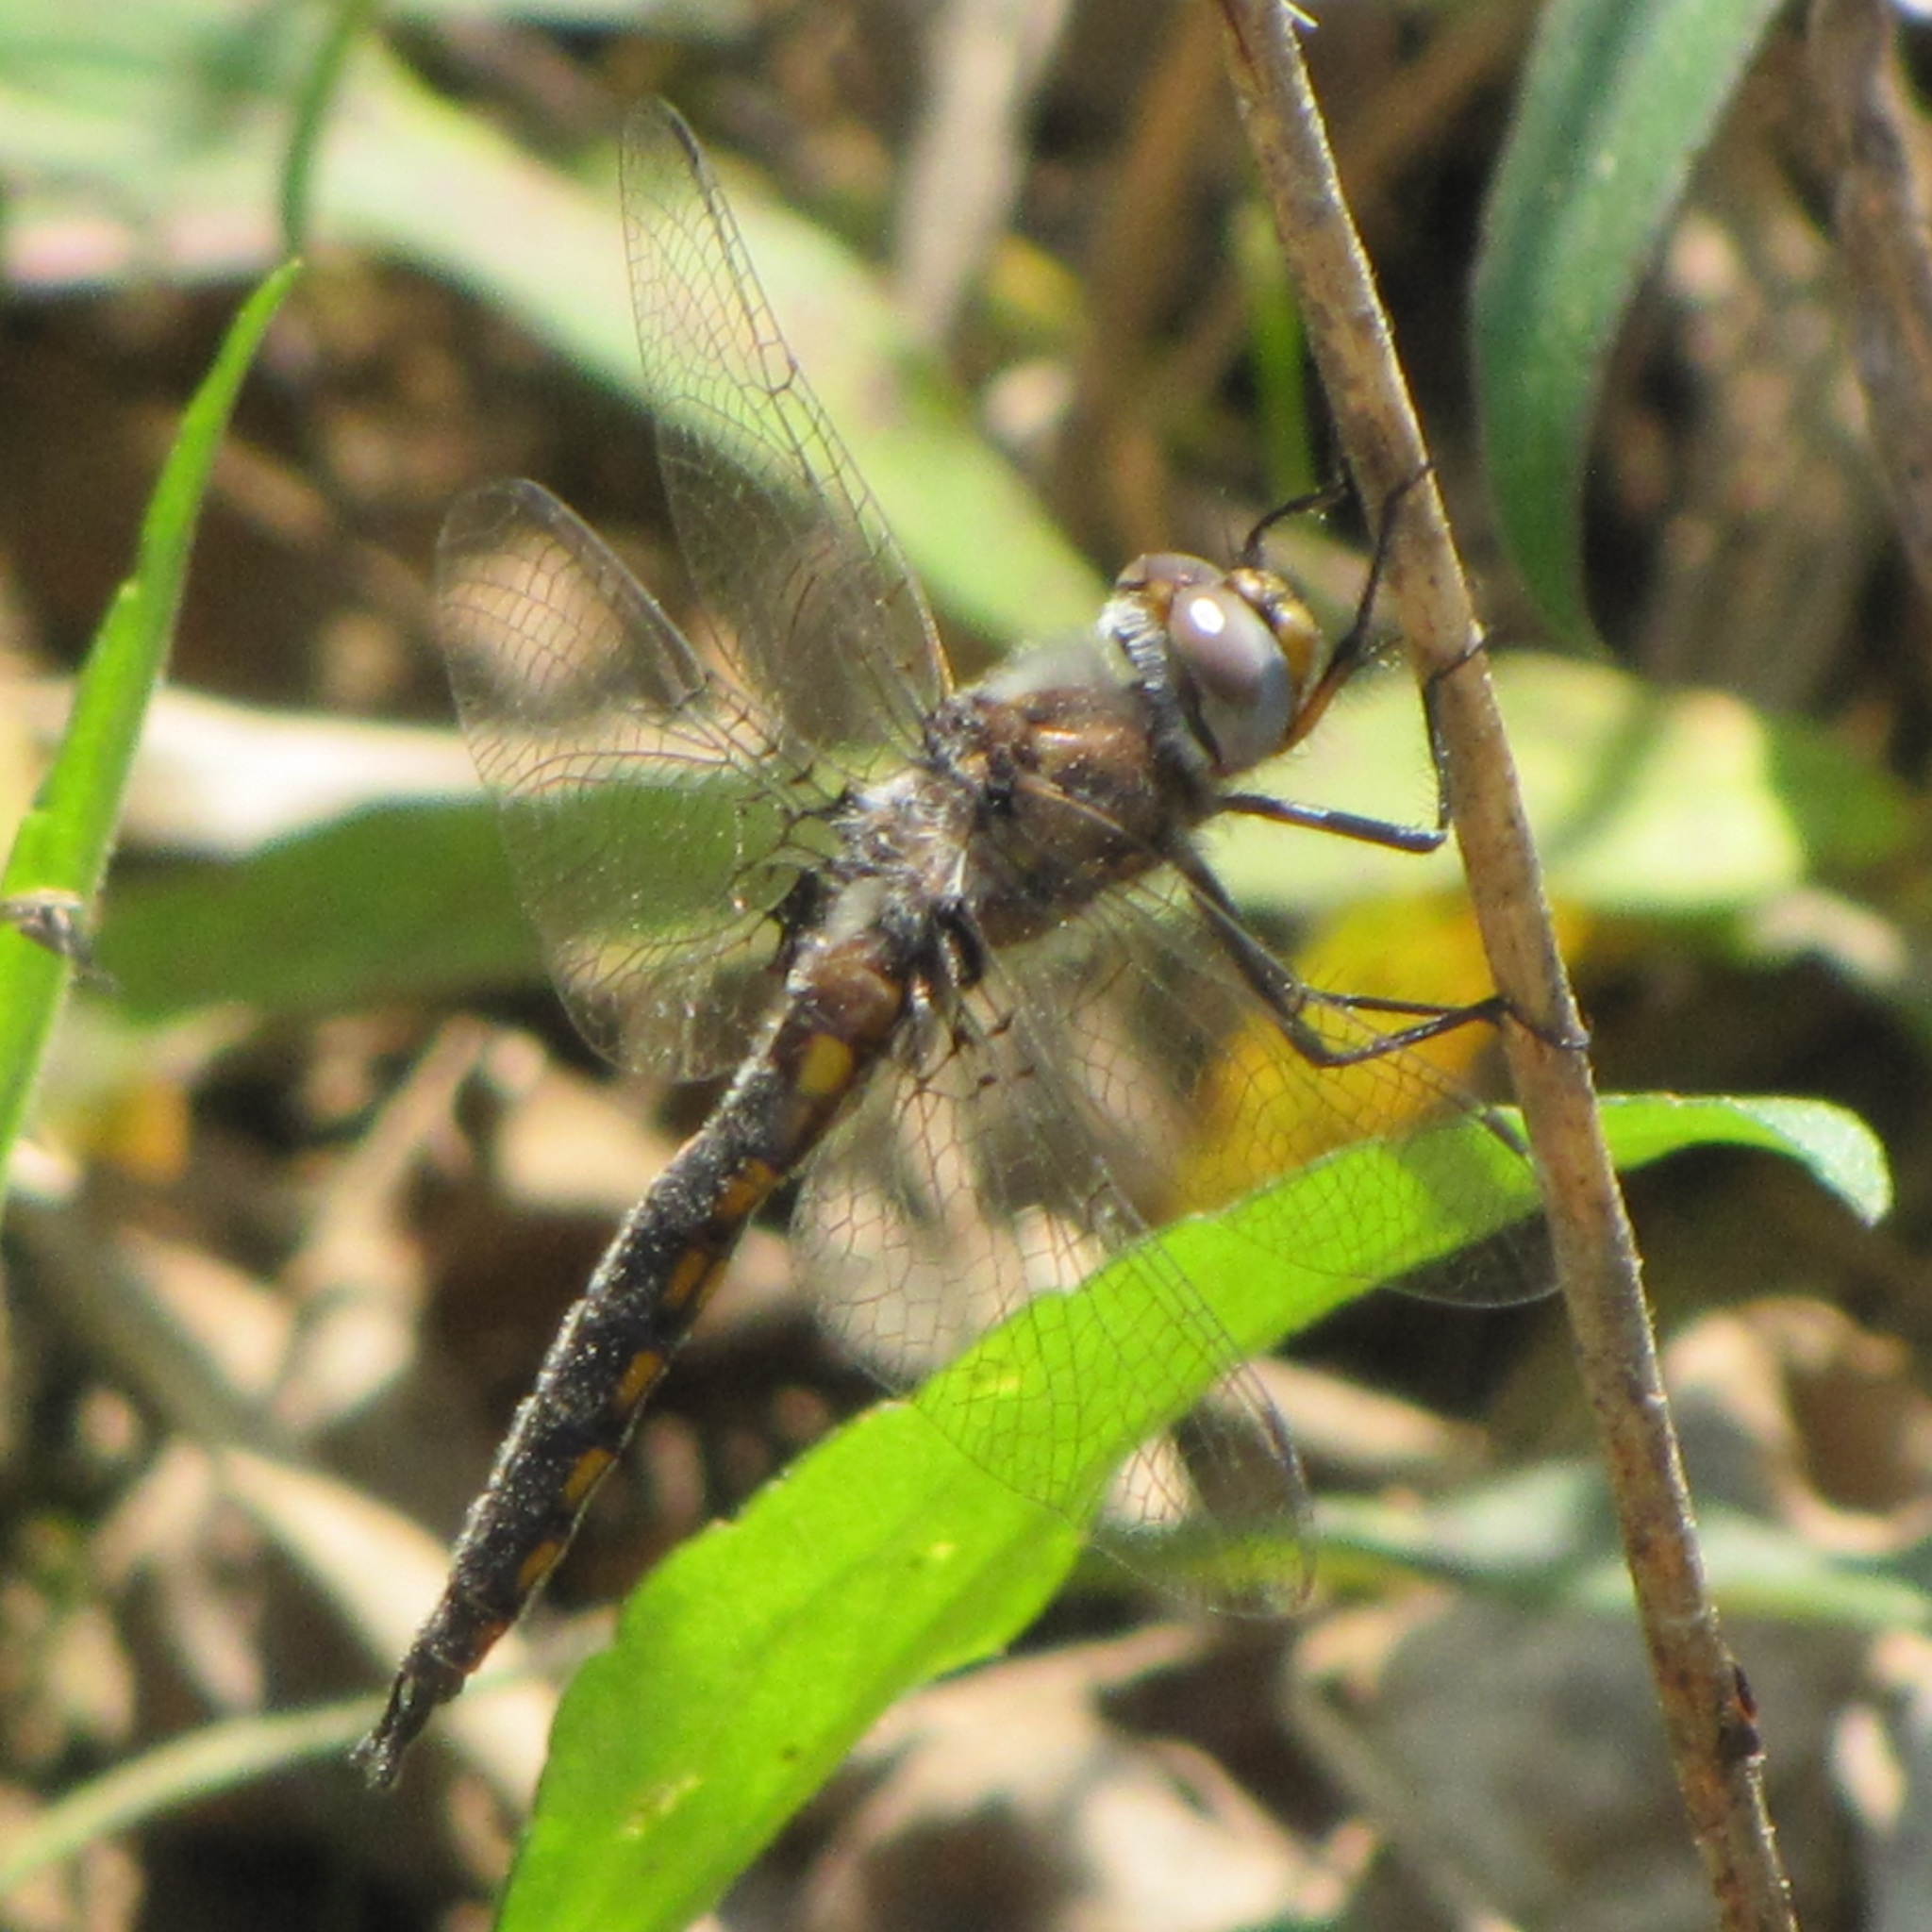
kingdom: Animalia
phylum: Arthropoda
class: Insecta
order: Odonata
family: Corduliidae
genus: Epitheca
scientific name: Epitheca cynosura
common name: Common baskettail
